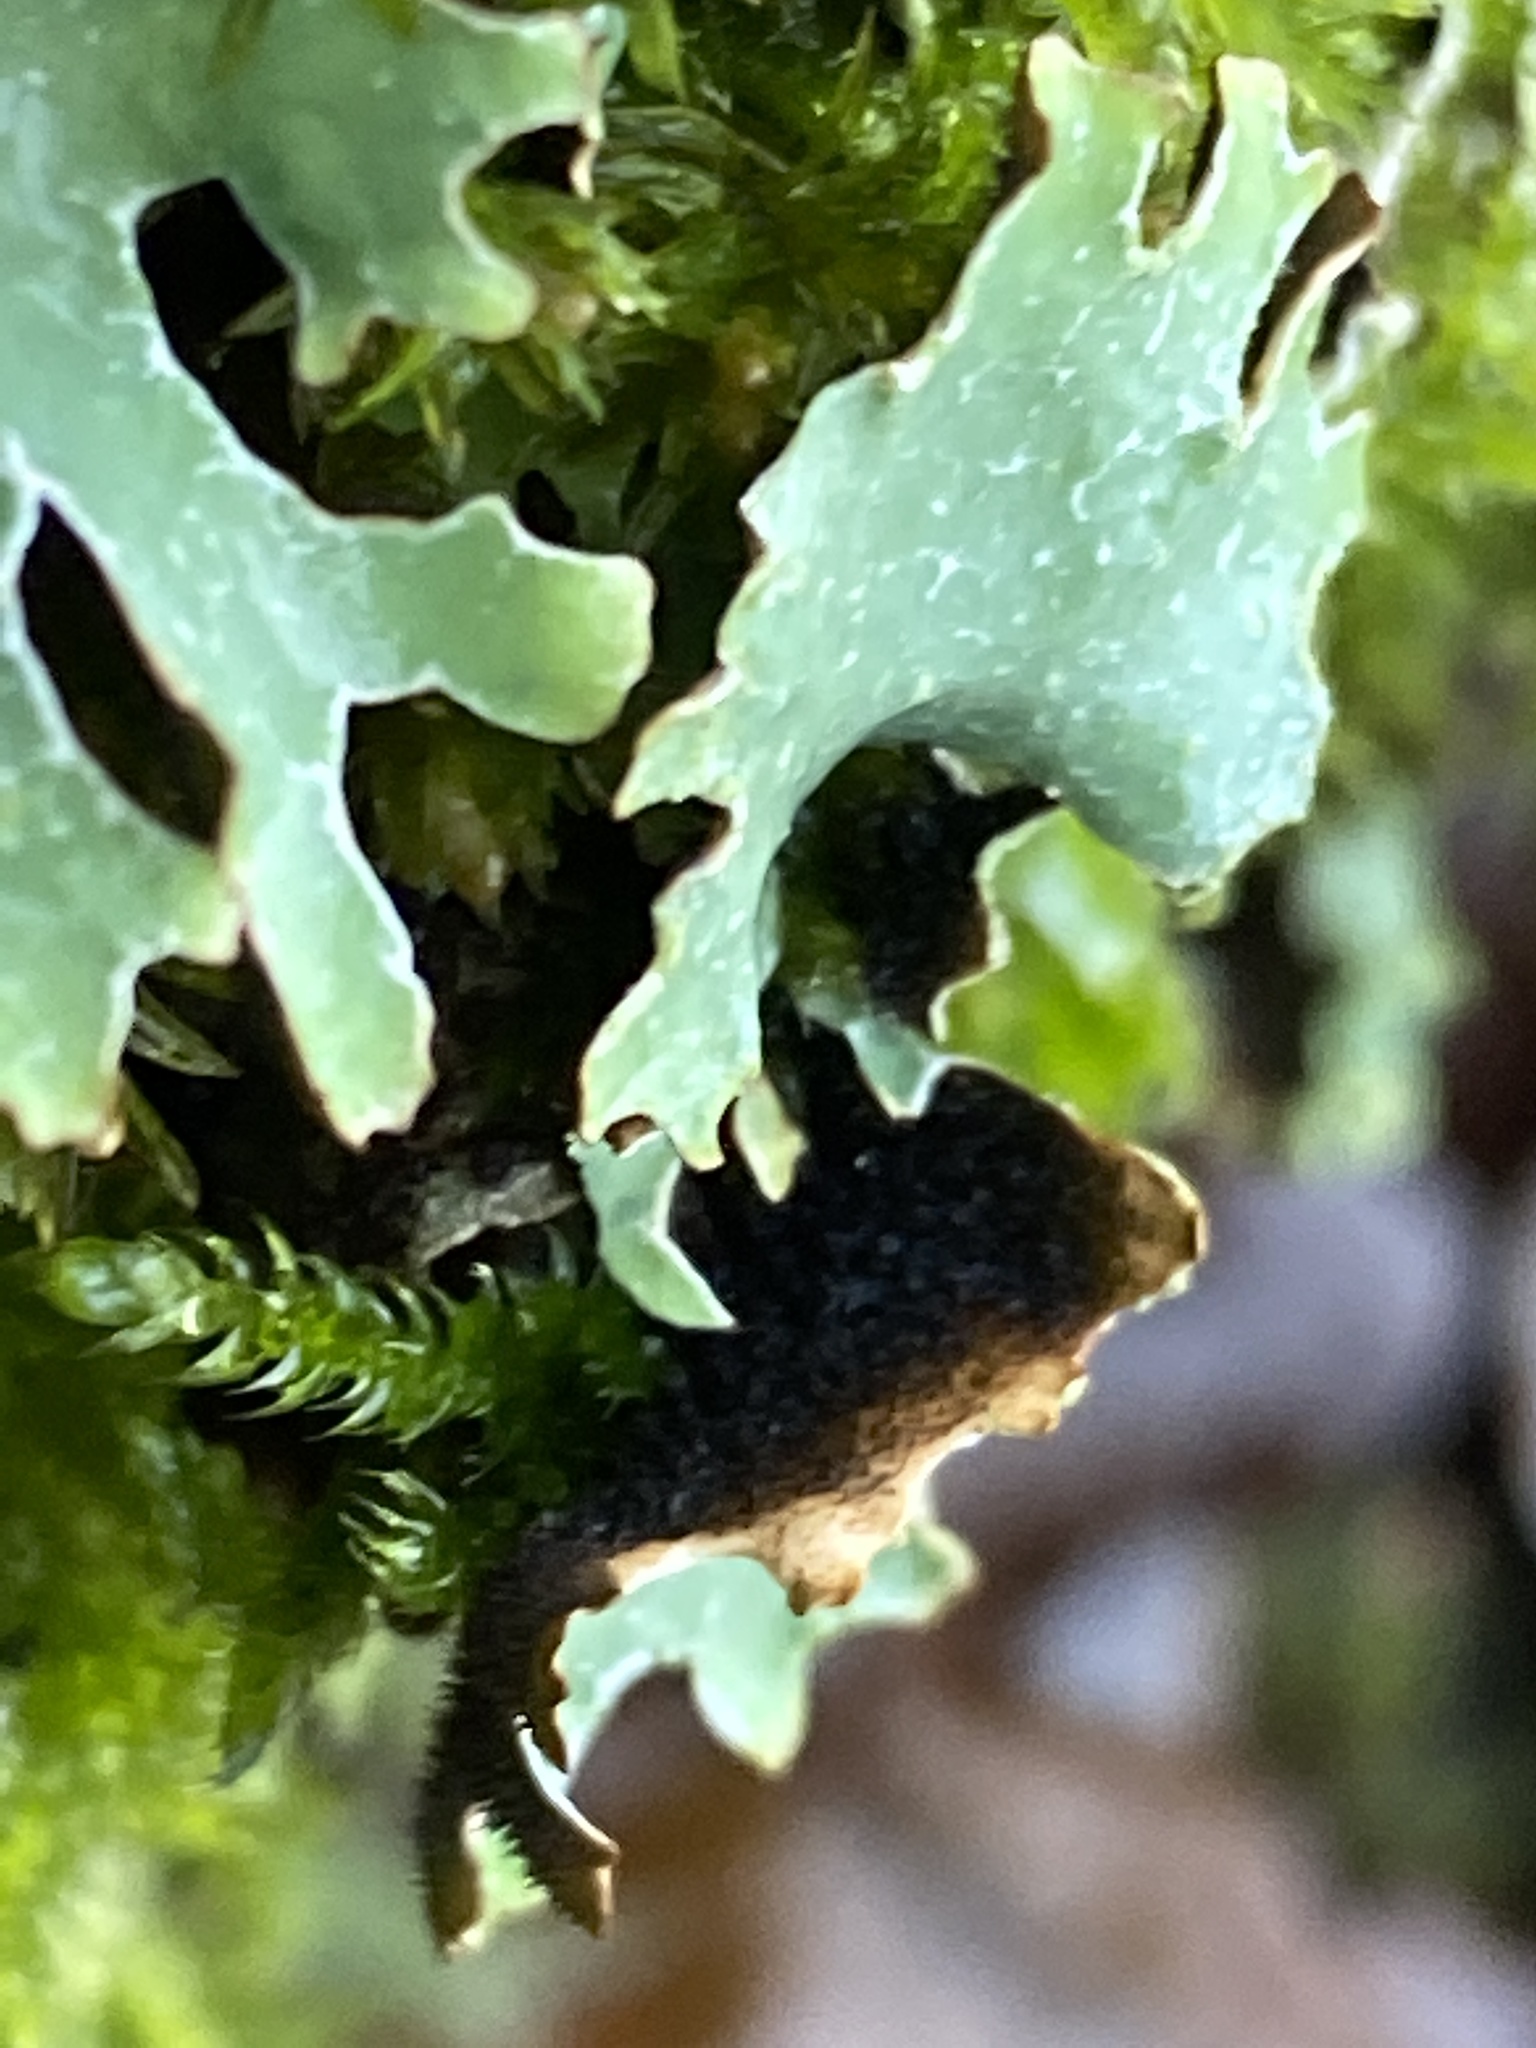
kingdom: Fungi
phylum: Ascomycota
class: Lecanoromycetes
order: Lecanorales
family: Parmeliaceae
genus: Parmelia
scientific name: Parmelia sulcata
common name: Netted shield lichen
